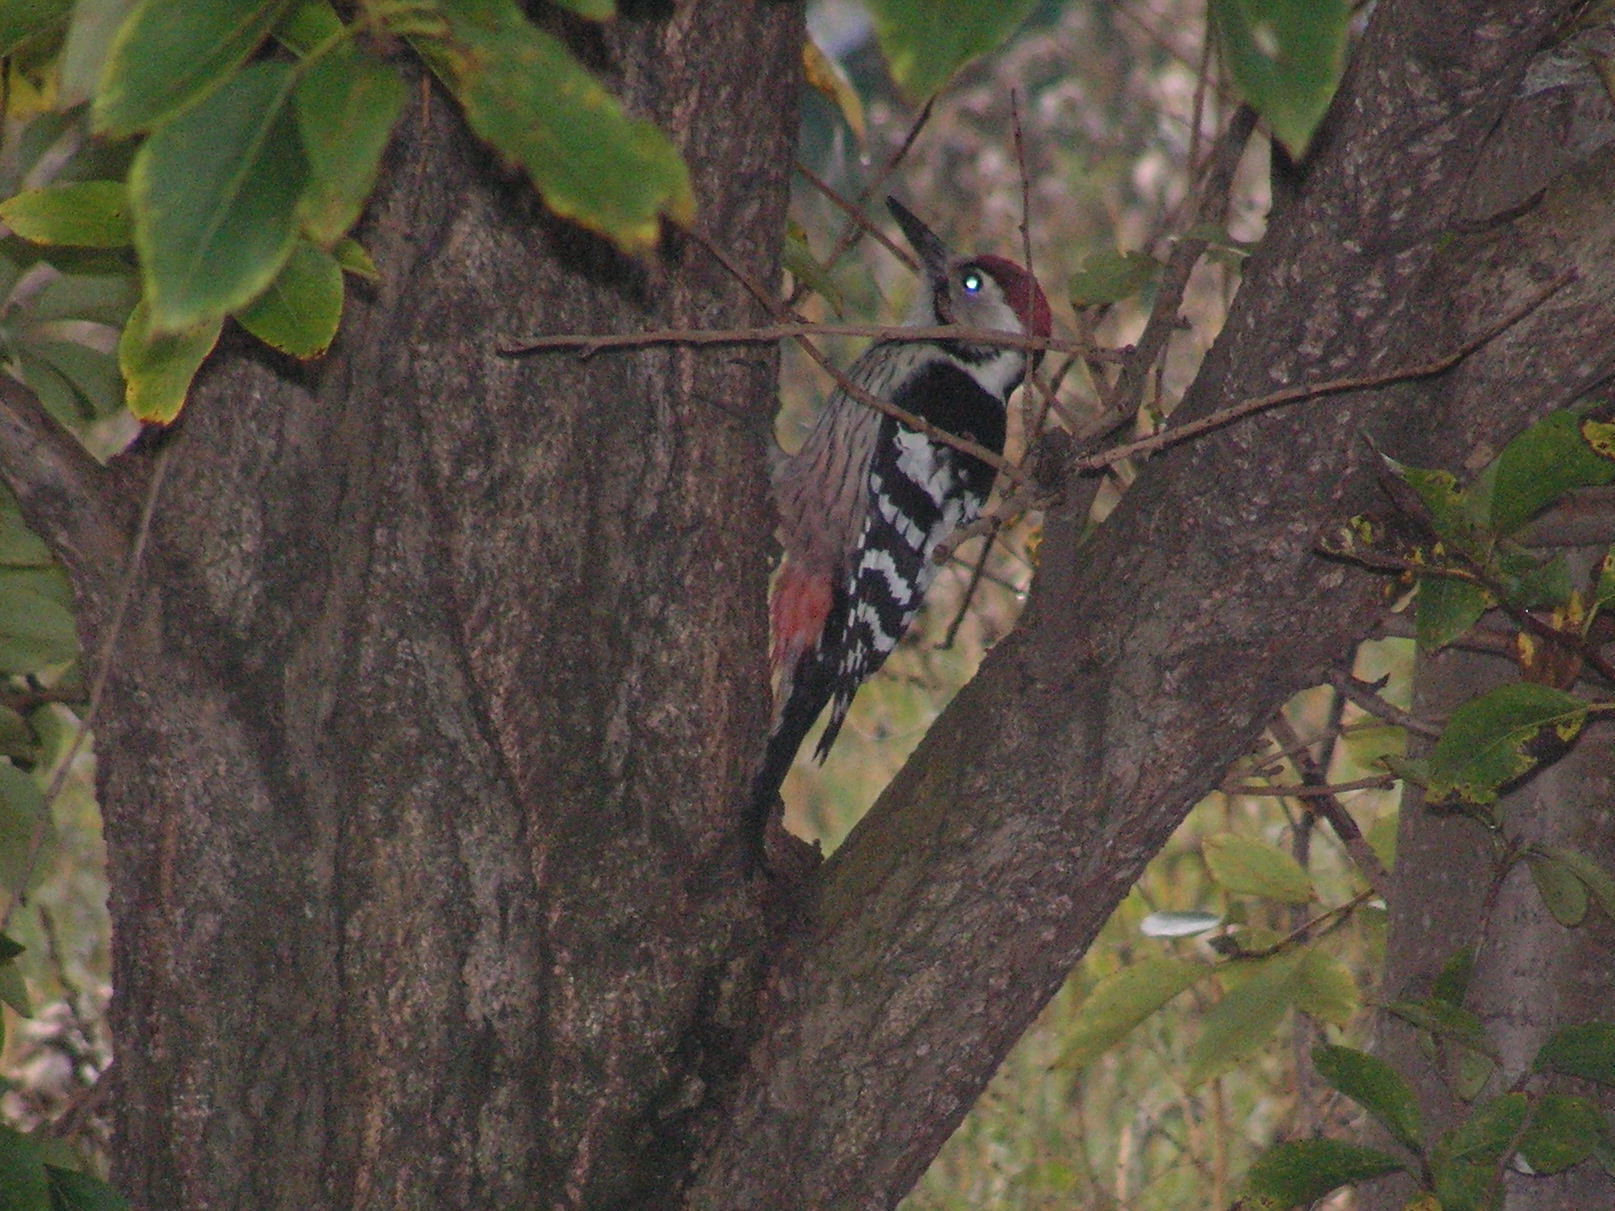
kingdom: Animalia
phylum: Chordata
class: Aves
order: Piciformes
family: Picidae
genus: Dendrocopos
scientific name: Dendrocopos leucotos
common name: White-backed woodpecker
